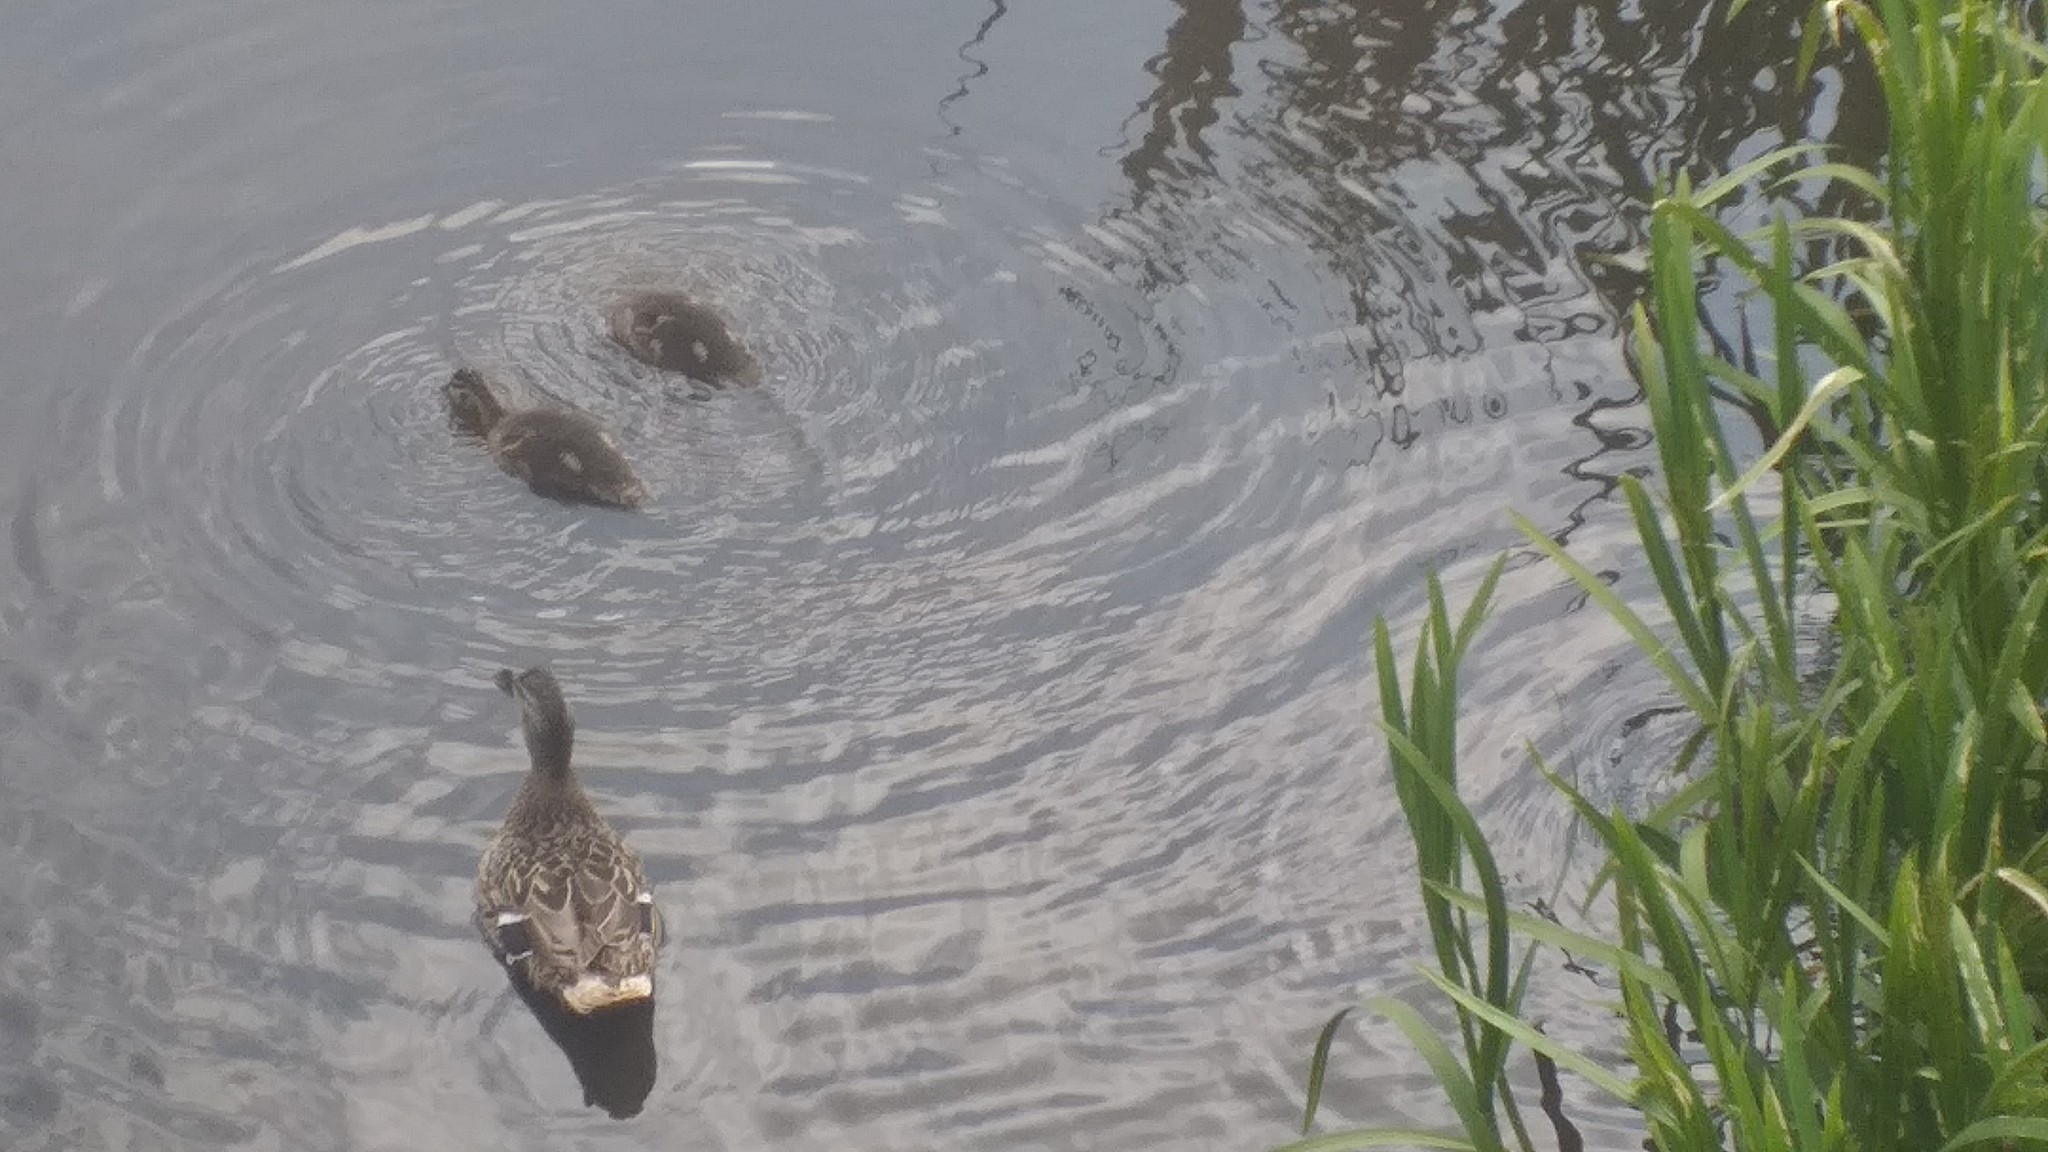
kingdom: Animalia
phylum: Chordata
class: Aves
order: Anseriformes
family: Anatidae
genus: Anas
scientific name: Anas platyrhynchos
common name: Mallard
